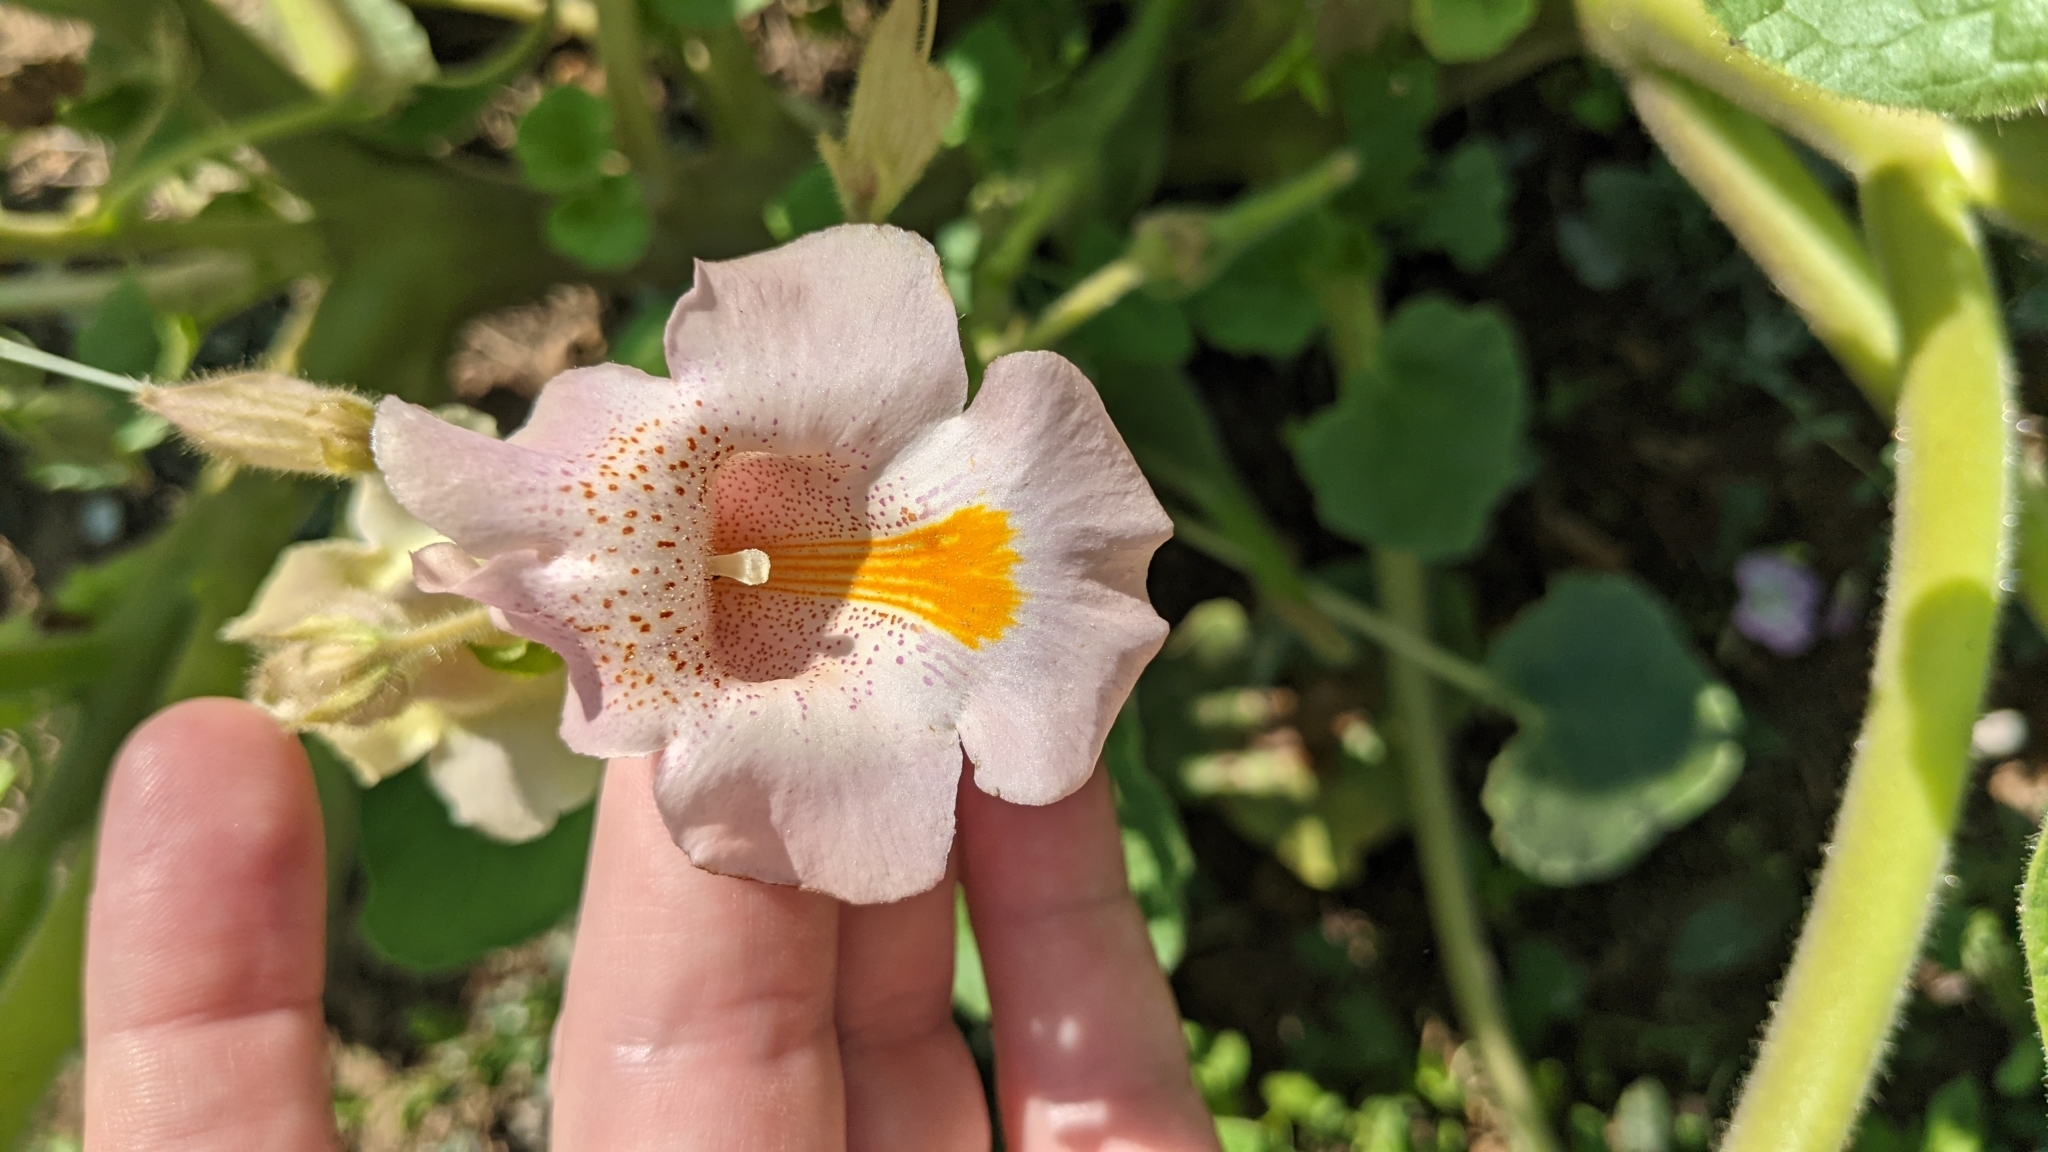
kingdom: Plantae
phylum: Tracheophyta
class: Magnoliopsida
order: Lamiales
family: Martyniaceae
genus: Proboscidea
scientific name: Proboscidea louisianica
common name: Elephant tusks
